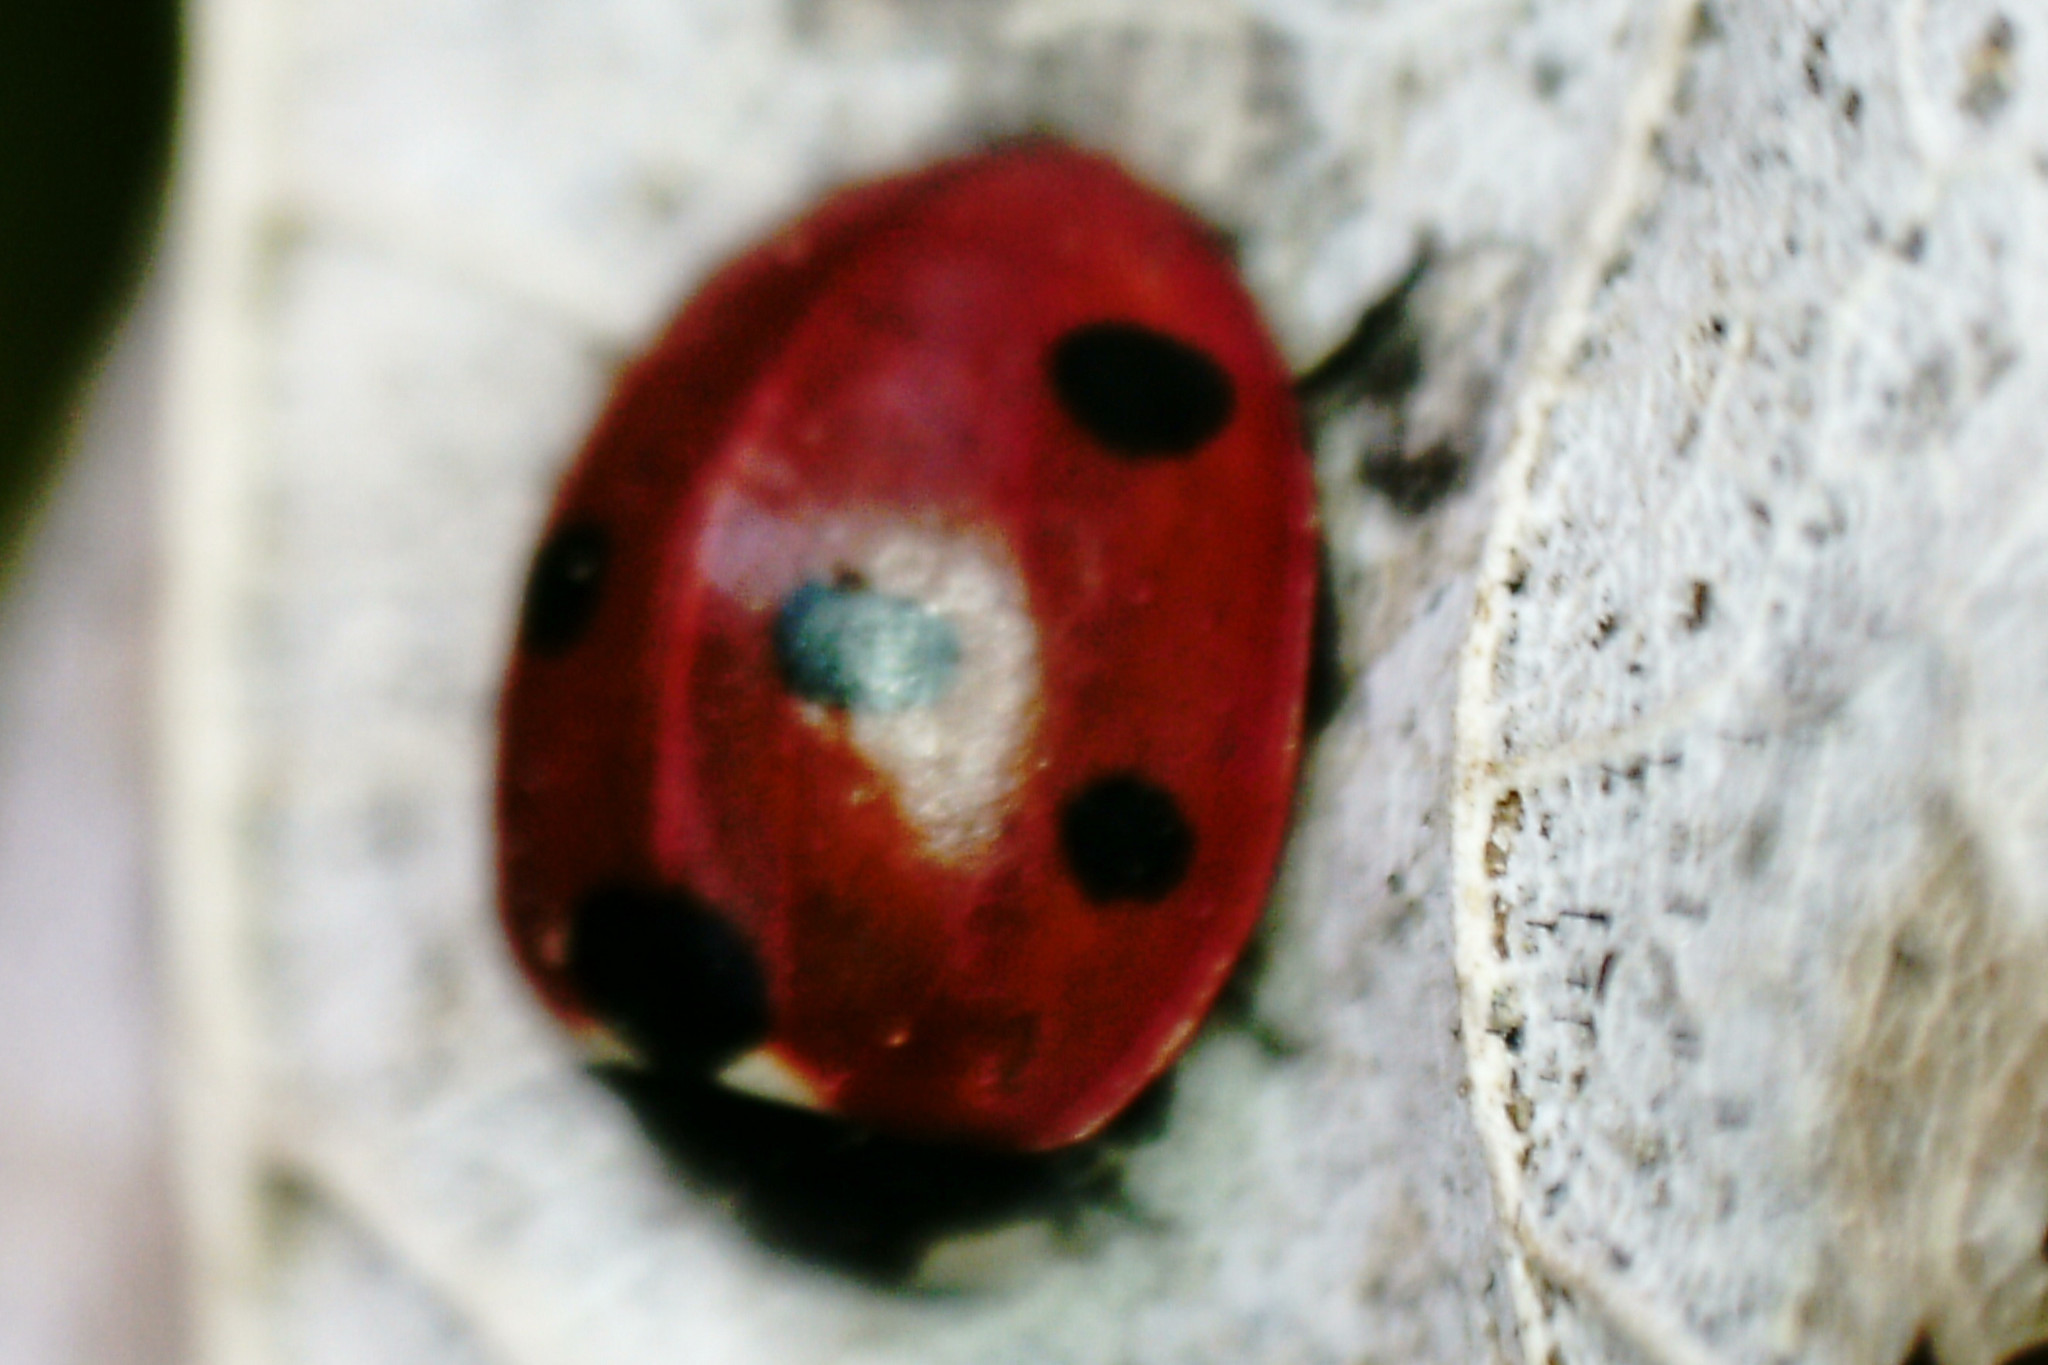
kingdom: Animalia
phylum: Arthropoda
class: Insecta
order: Coleoptera
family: Coccinellidae
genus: Coccinella
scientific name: Coccinella septempunctata
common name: Sevenspotted lady beetle
